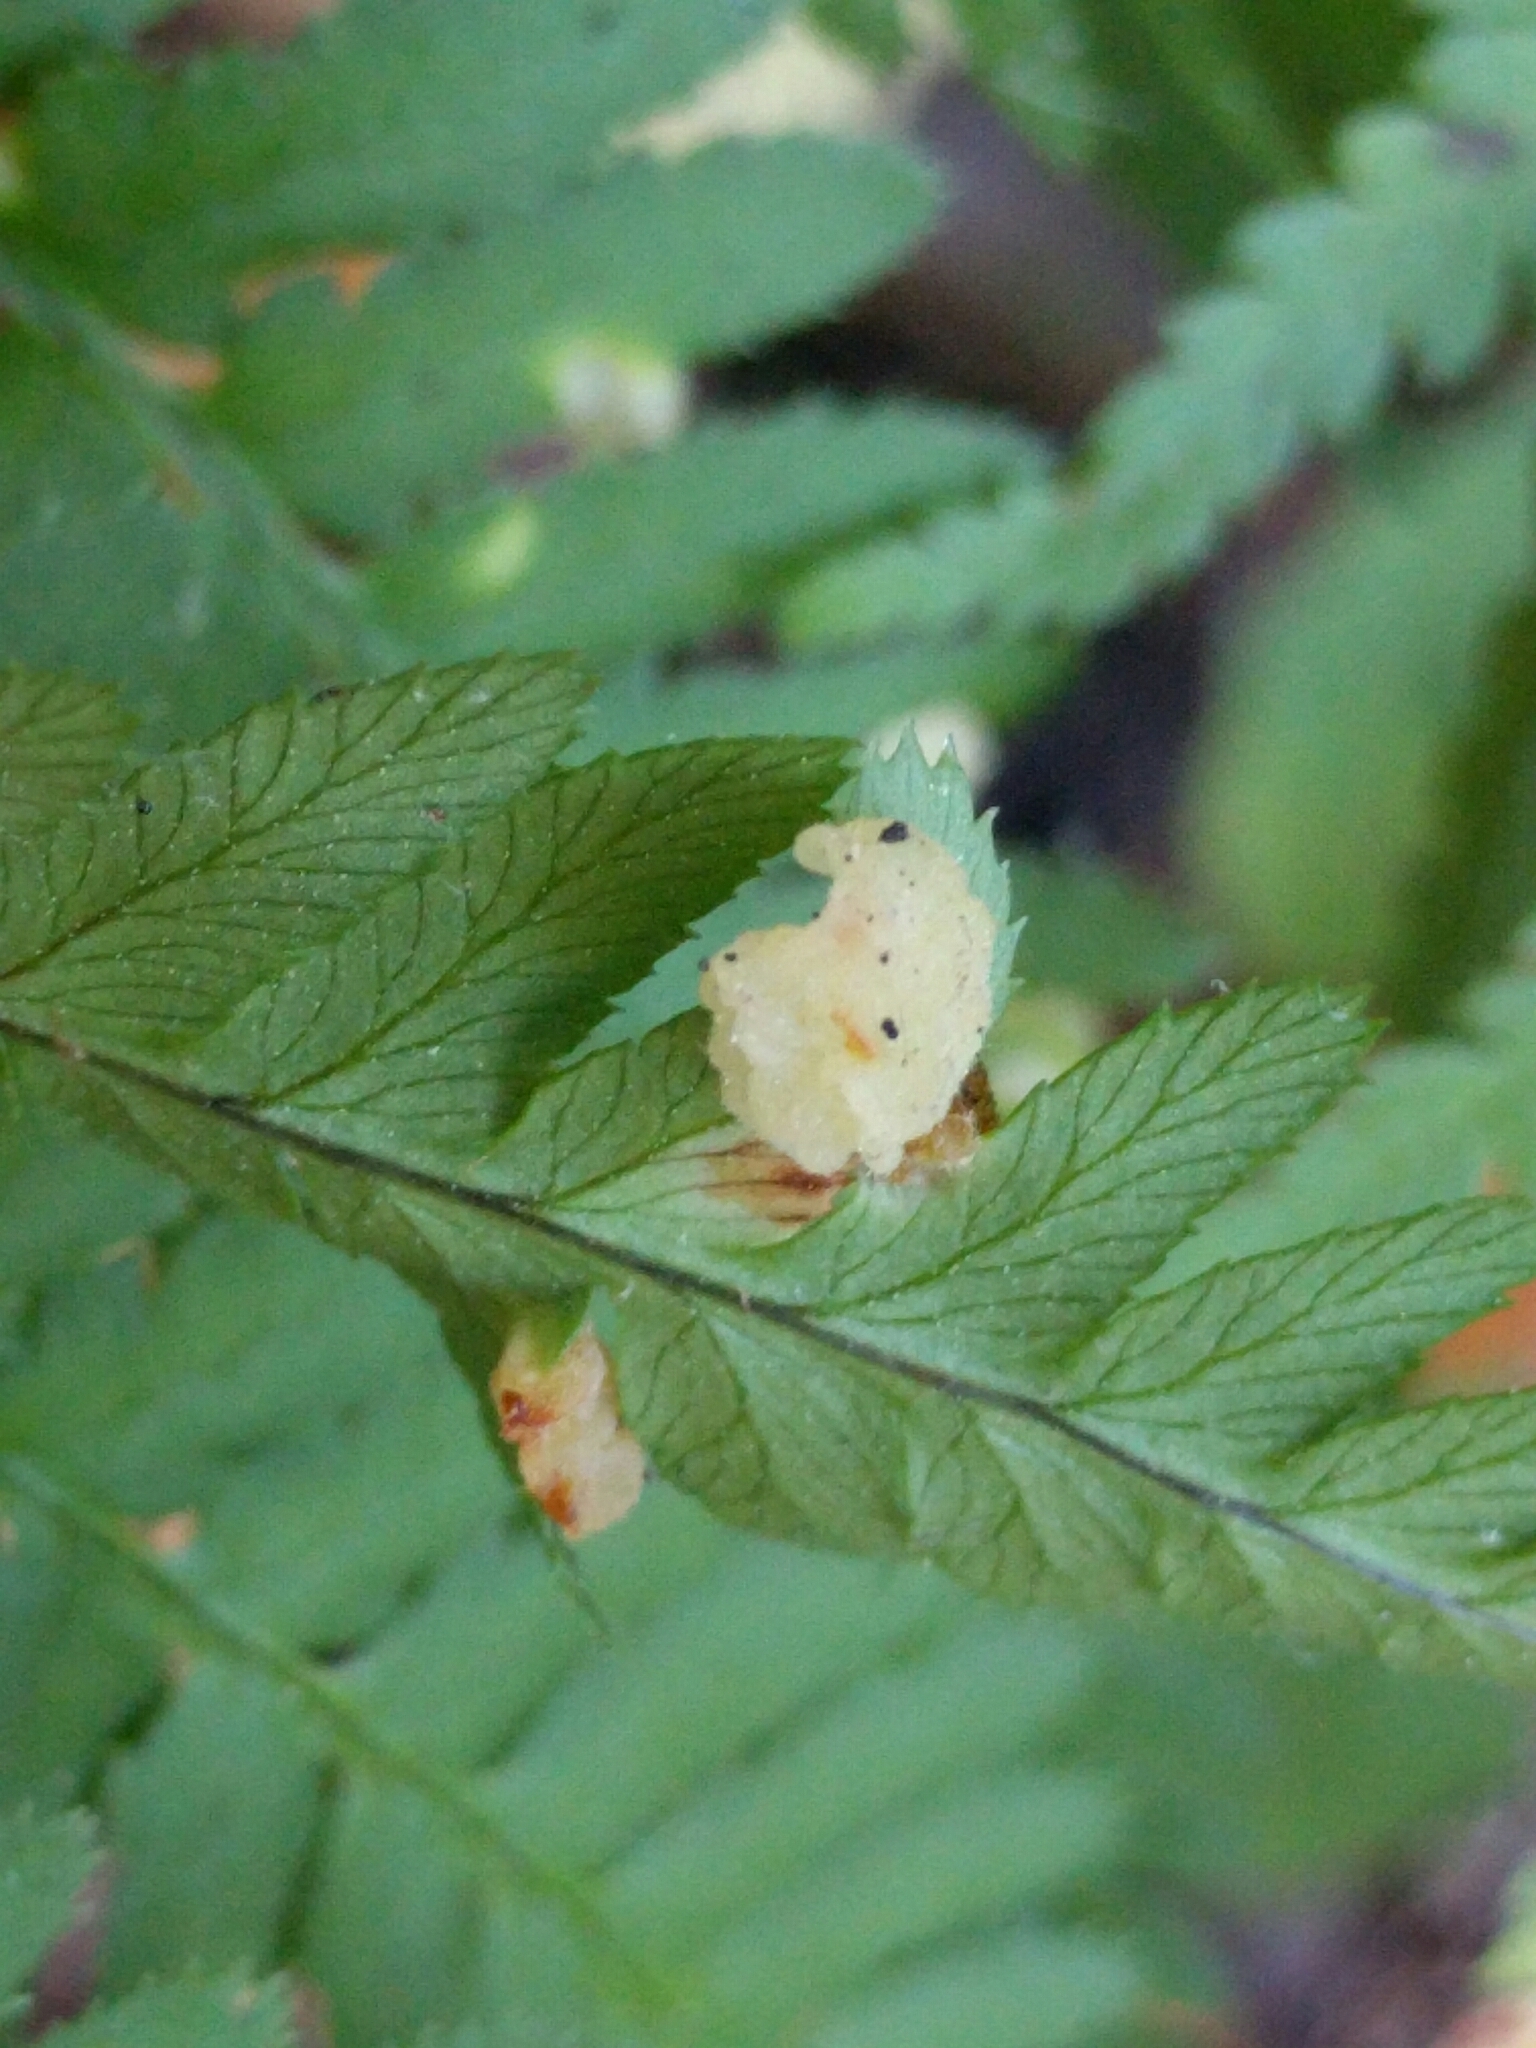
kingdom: Fungi
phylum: Ascomycota
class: Taphrinomycetes
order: Taphrinales
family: Taphrinaceae
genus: Taphrina
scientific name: Taphrina californica
